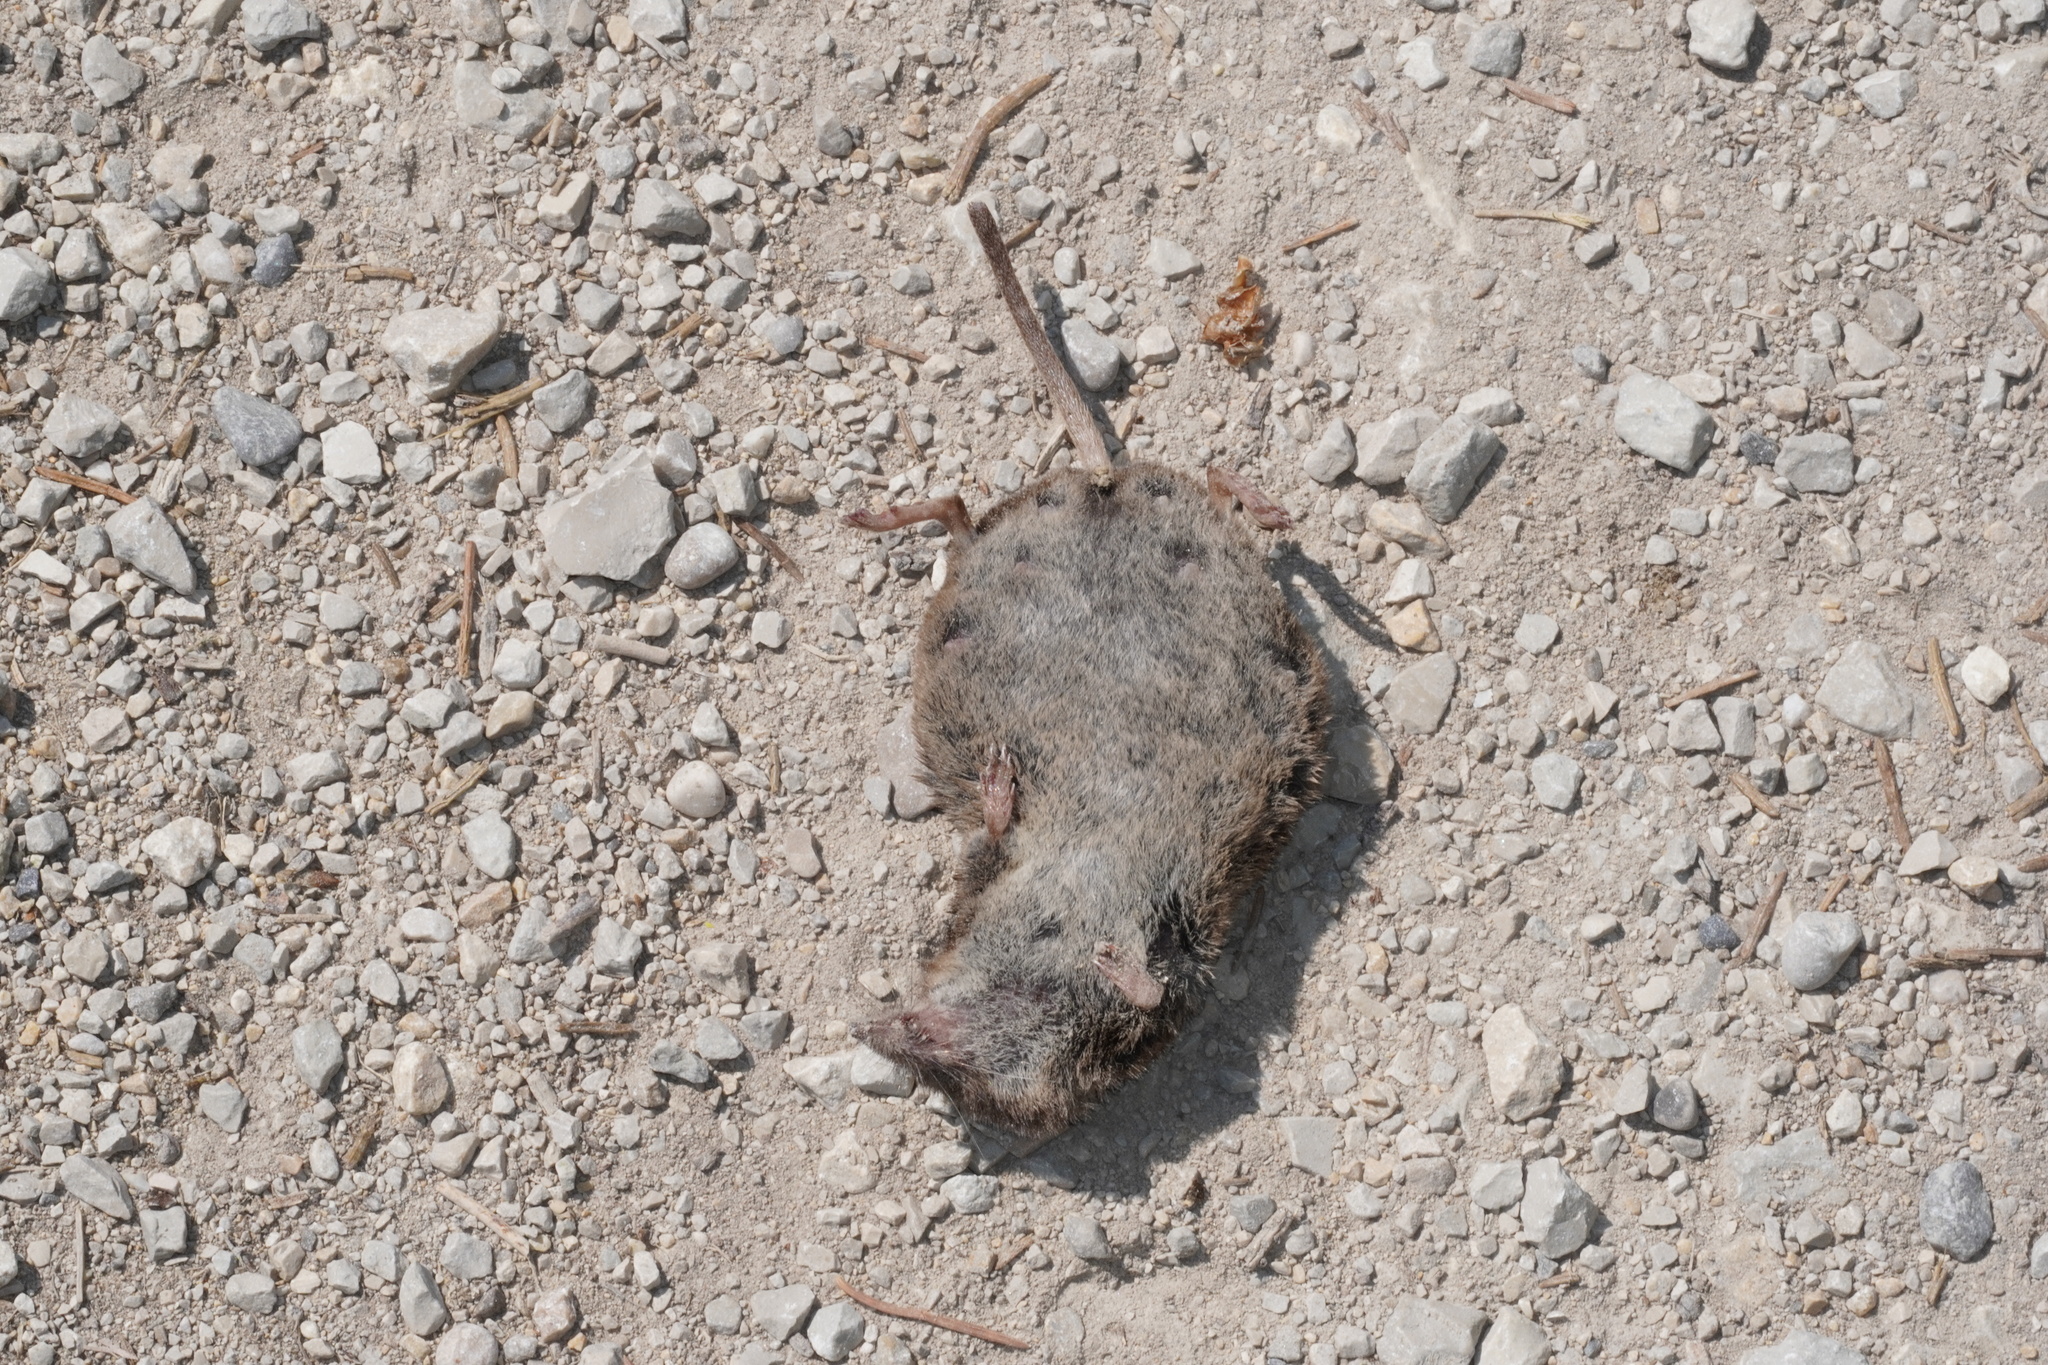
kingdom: Animalia
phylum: Chordata
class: Mammalia
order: Soricomorpha
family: Soricidae
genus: Sorex
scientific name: Sorex araneus
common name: Common shrew
